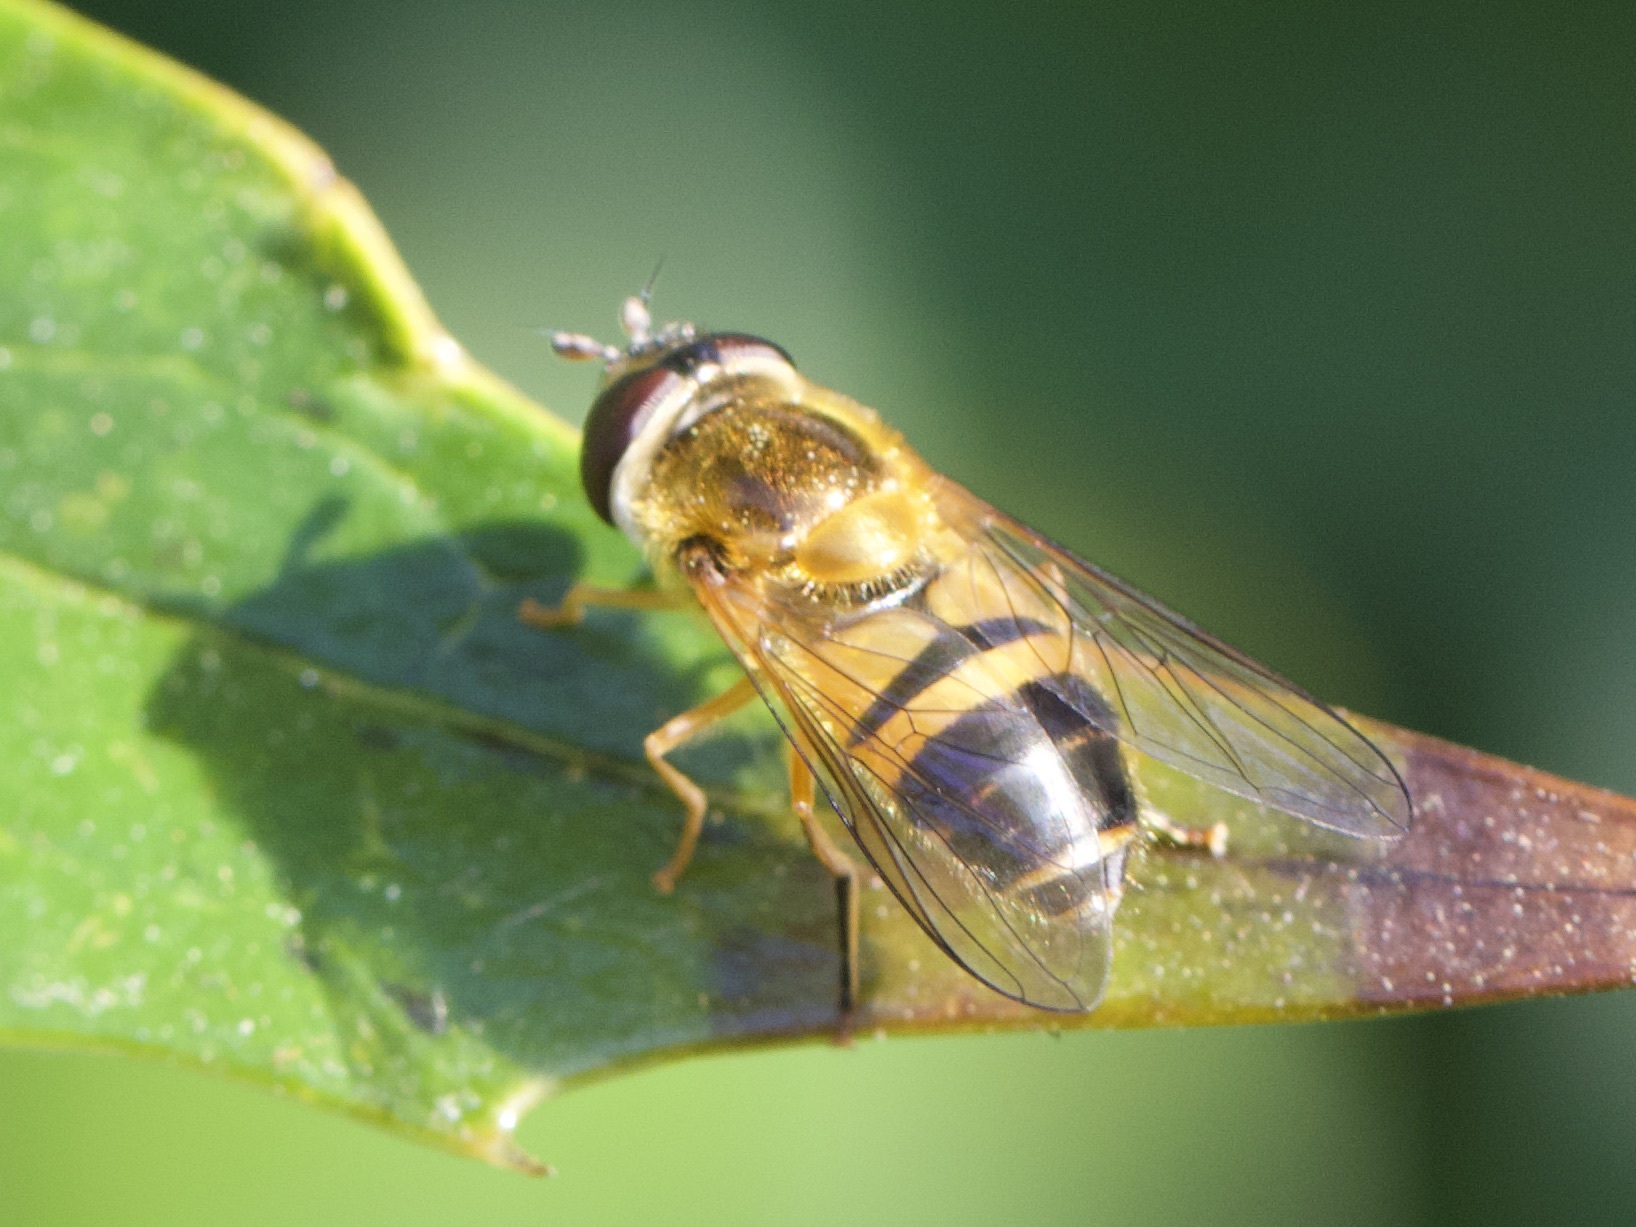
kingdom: Animalia
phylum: Arthropoda
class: Insecta
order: Diptera
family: Syrphidae
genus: Epistrophe
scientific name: Epistrophe eligans
